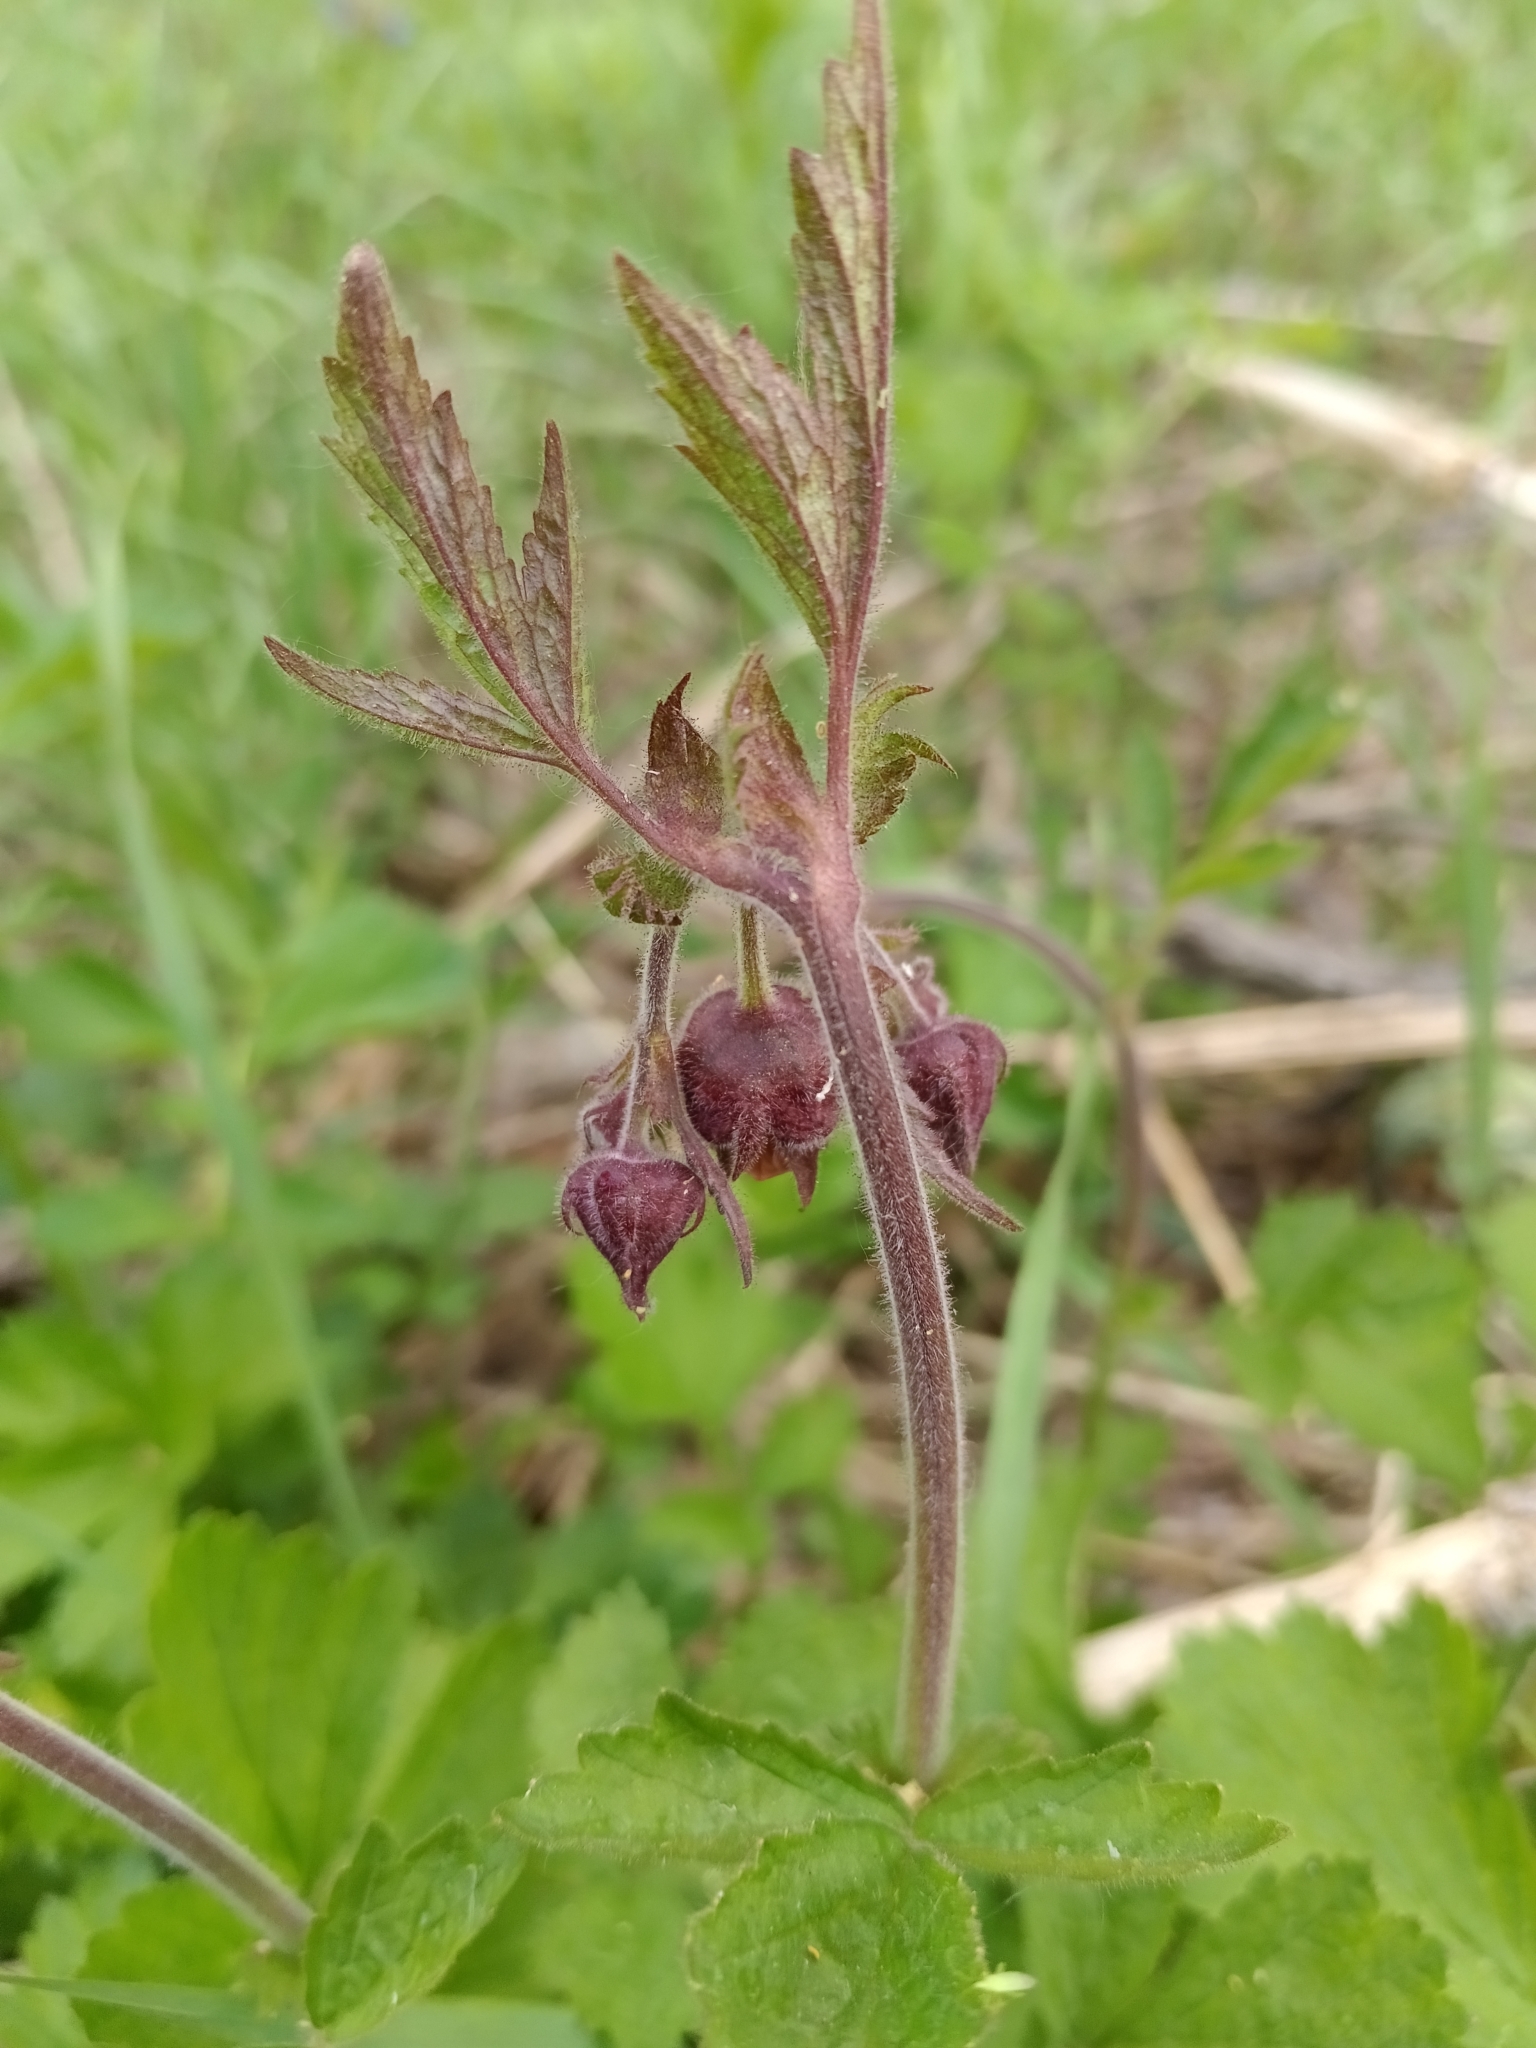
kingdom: Plantae
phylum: Tracheophyta
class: Magnoliopsida
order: Rosales
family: Rosaceae
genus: Geum
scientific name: Geum rivale
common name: Water avens
